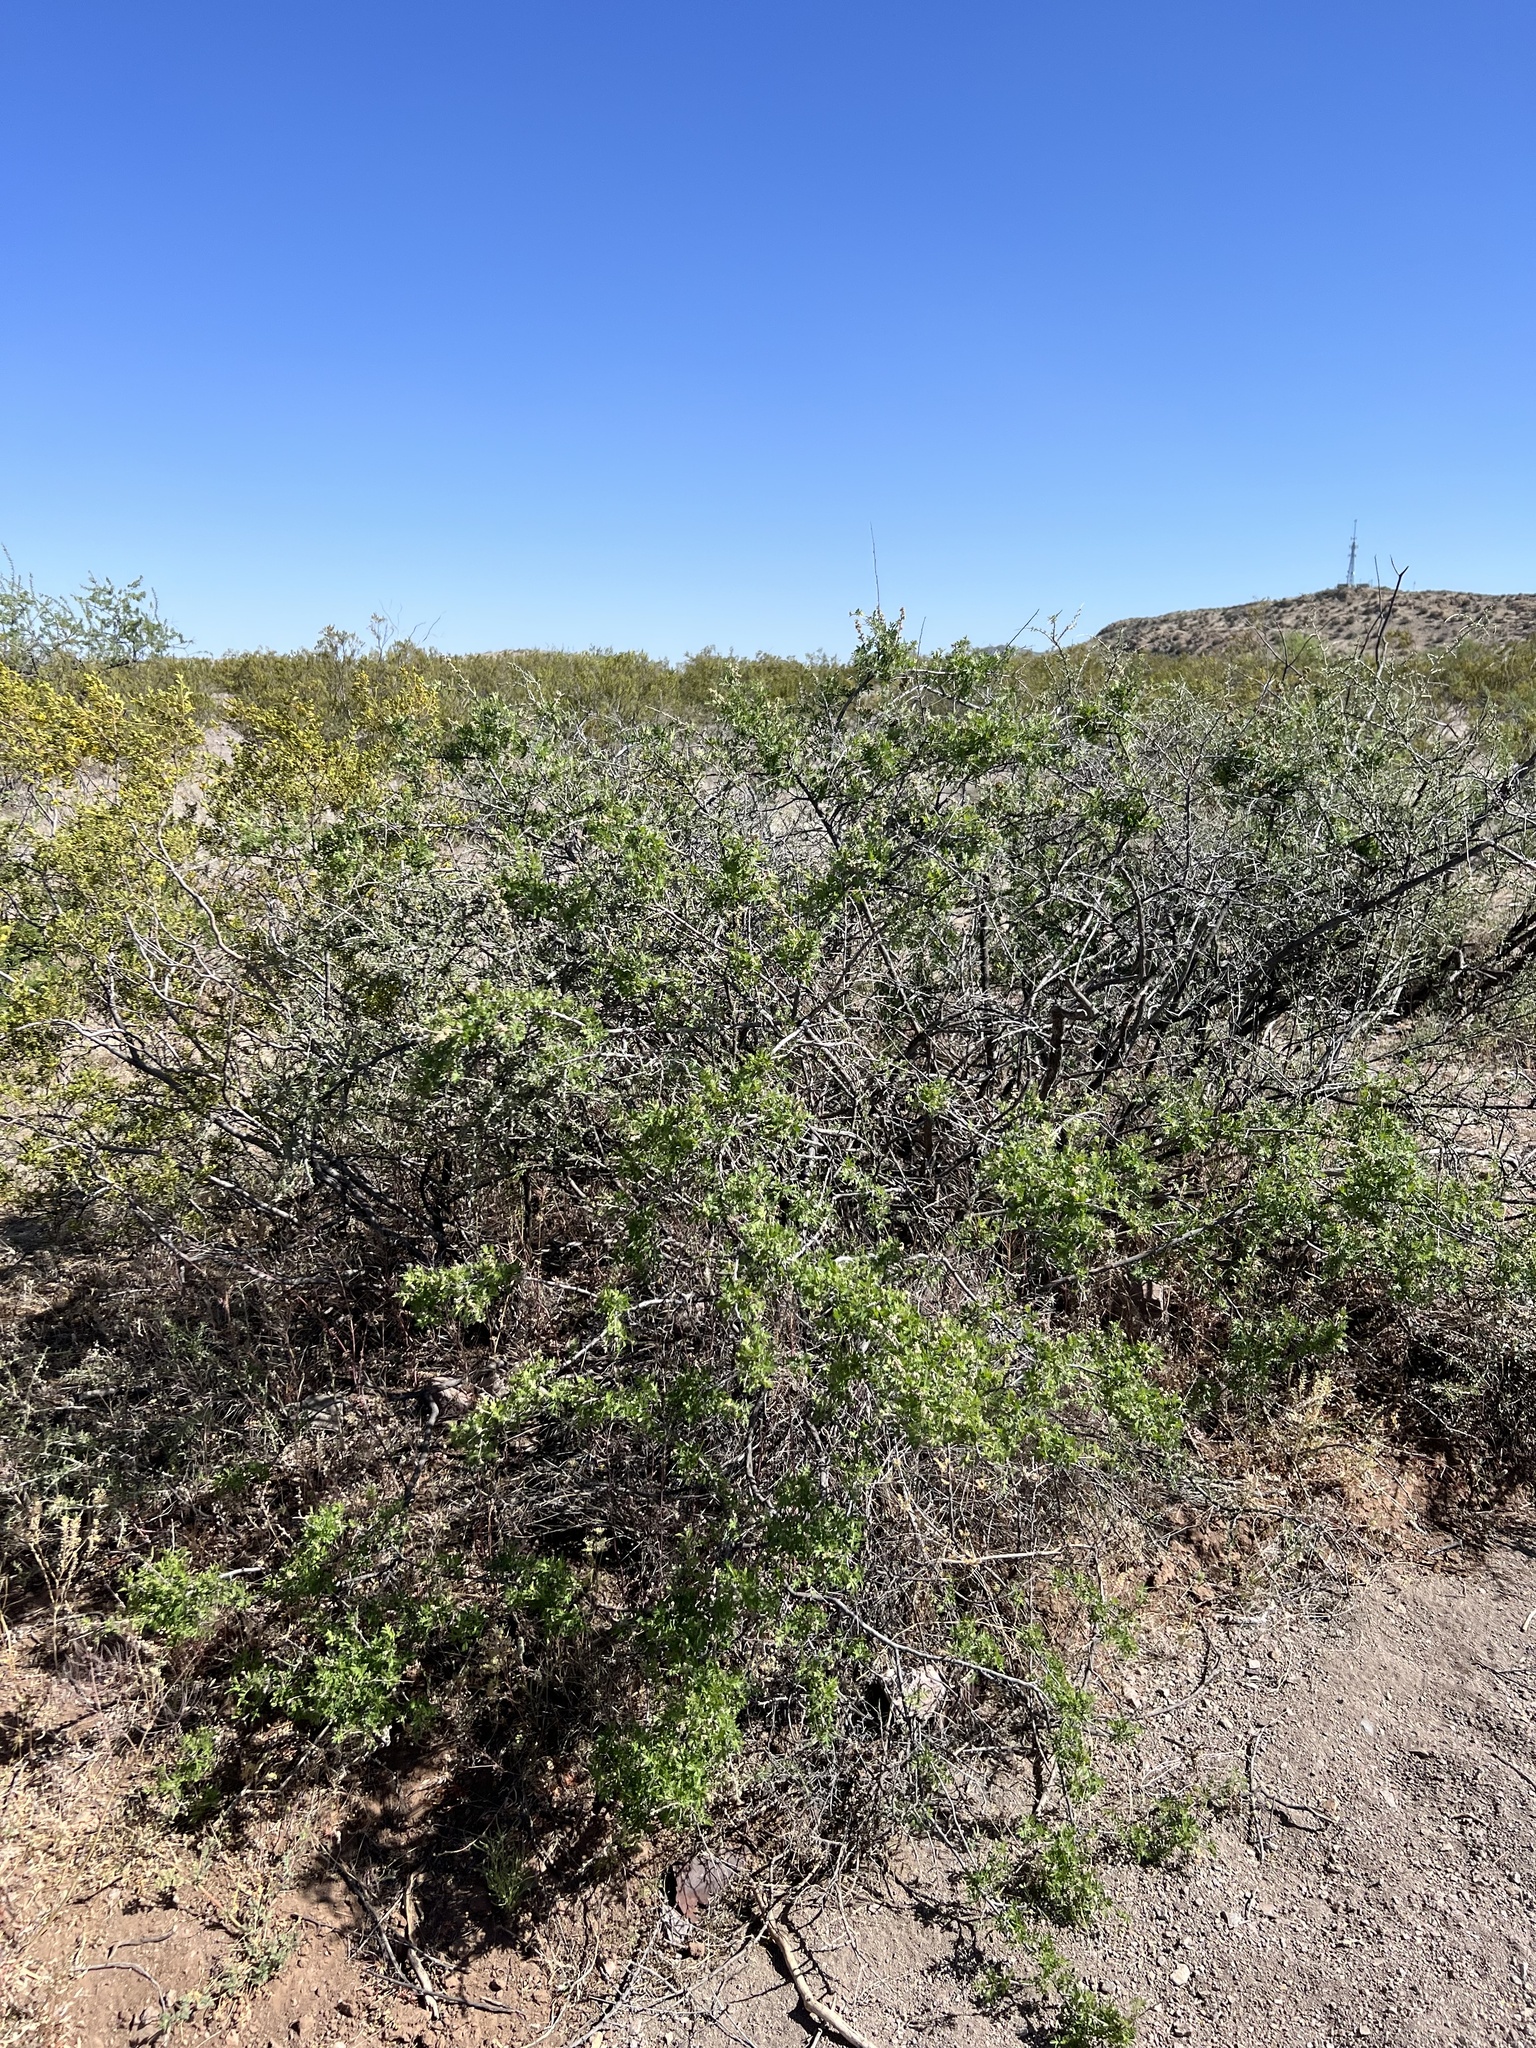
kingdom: Plantae
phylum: Tracheophyta
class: Magnoliopsida
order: Sapindales
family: Anacardiaceae
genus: Rhus
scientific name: Rhus microphylla
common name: Desert sumac
